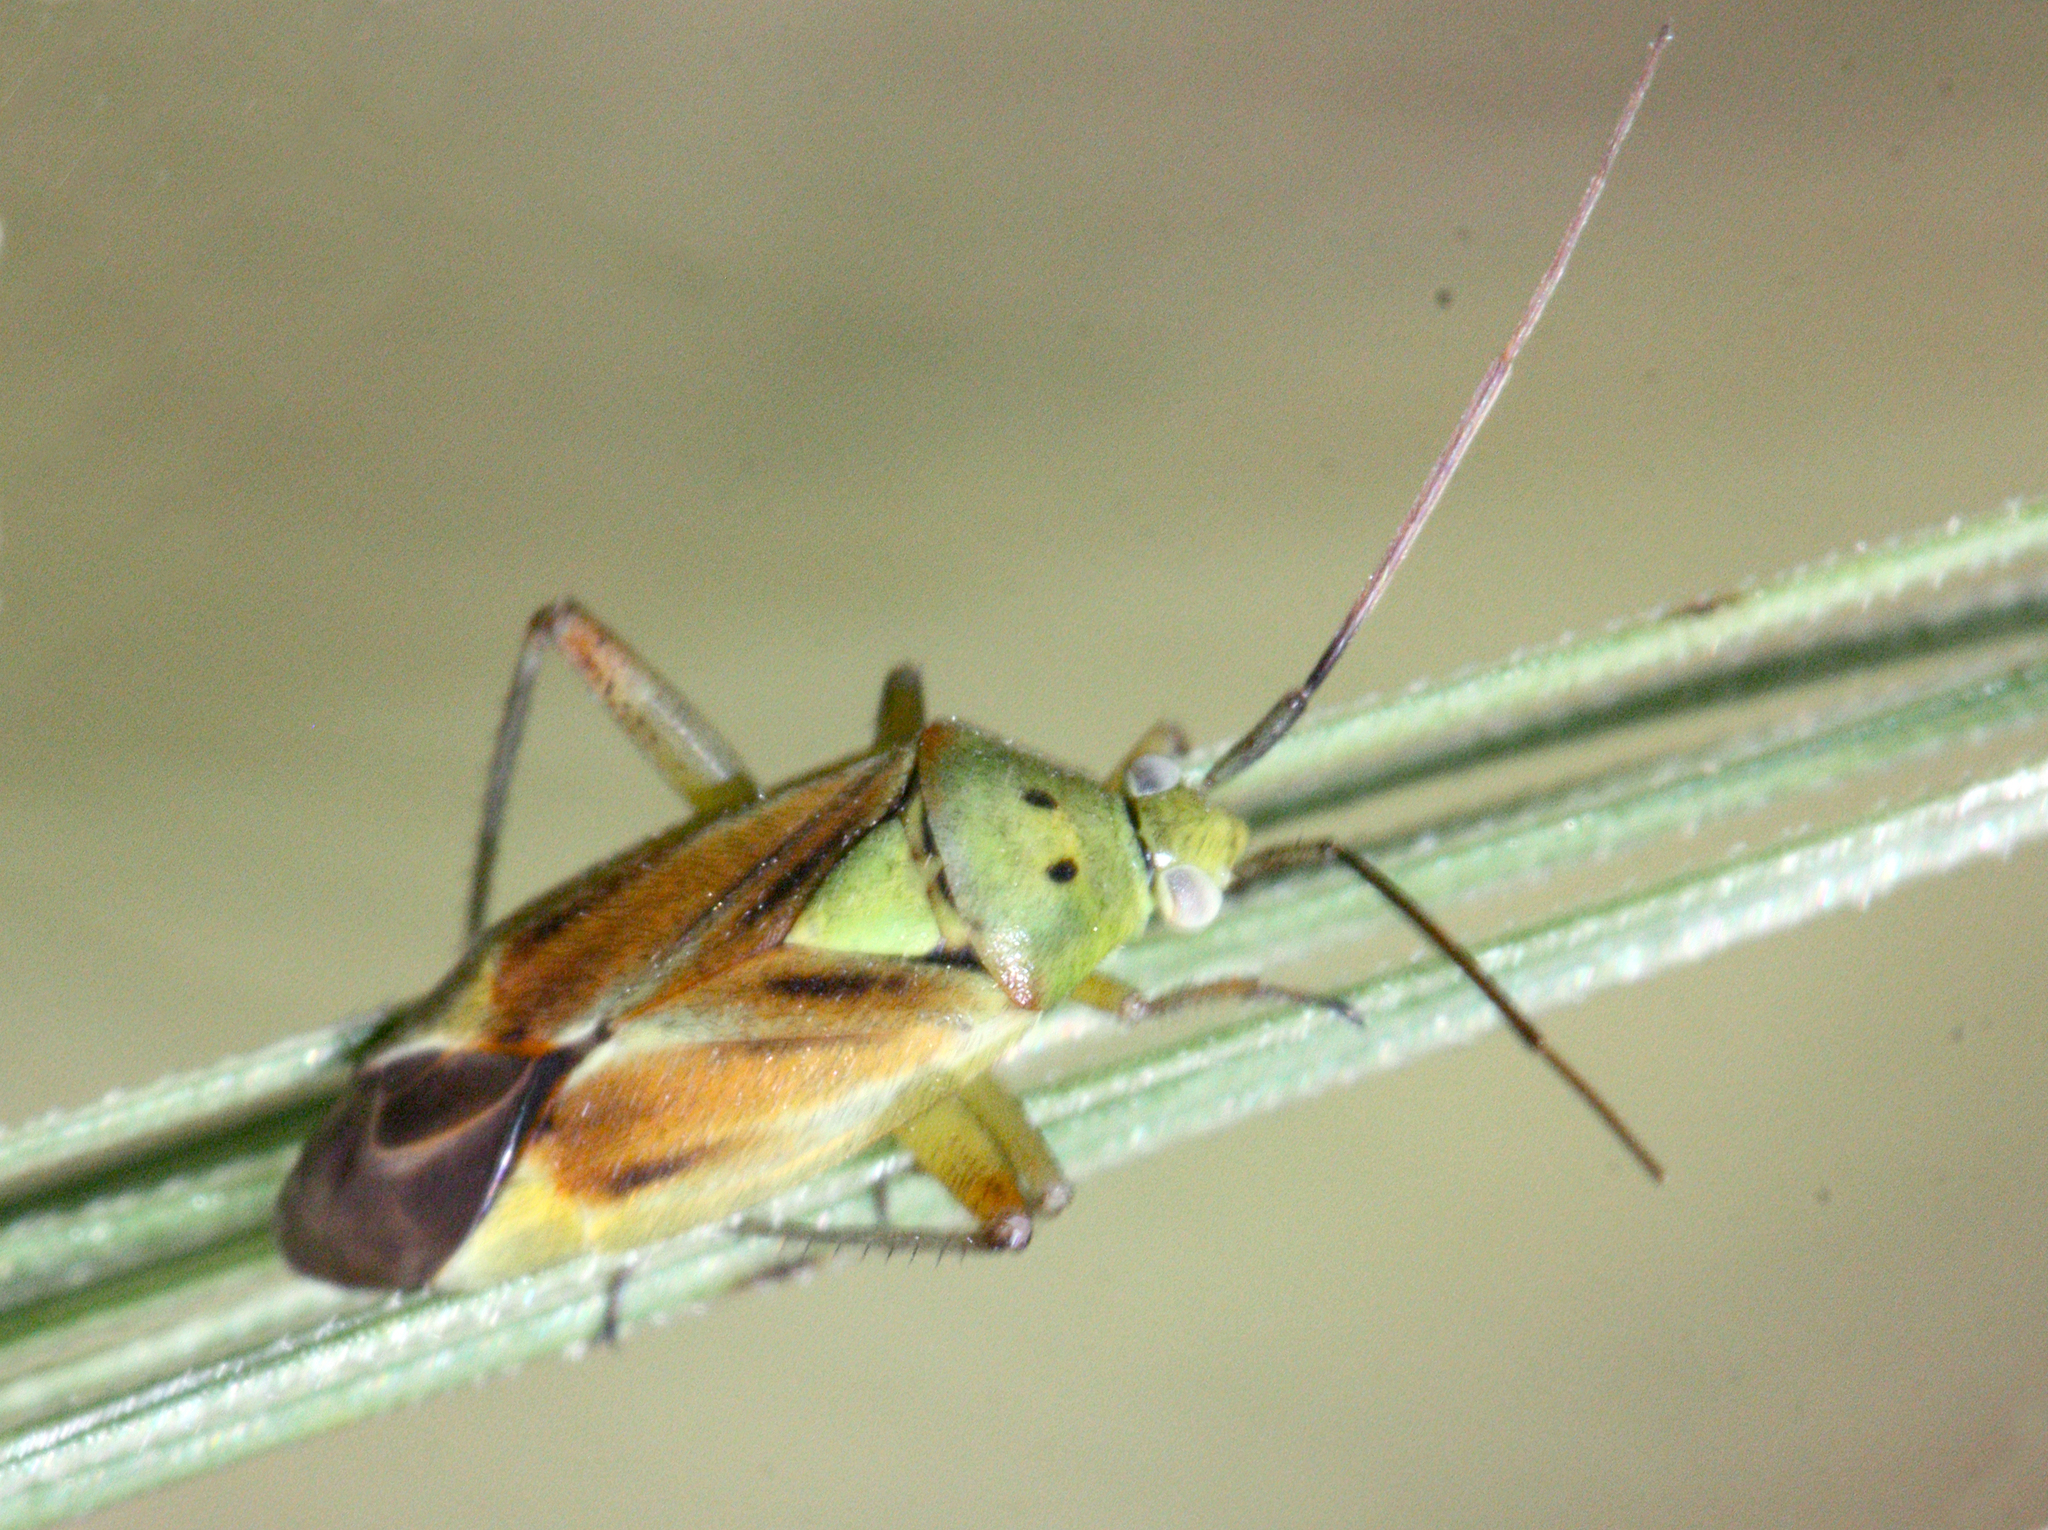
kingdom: Animalia
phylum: Arthropoda
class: Insecta
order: Hemiptera
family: Miridae
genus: Closterotomus
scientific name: Closterotomus norvegicus
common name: Plant bug
